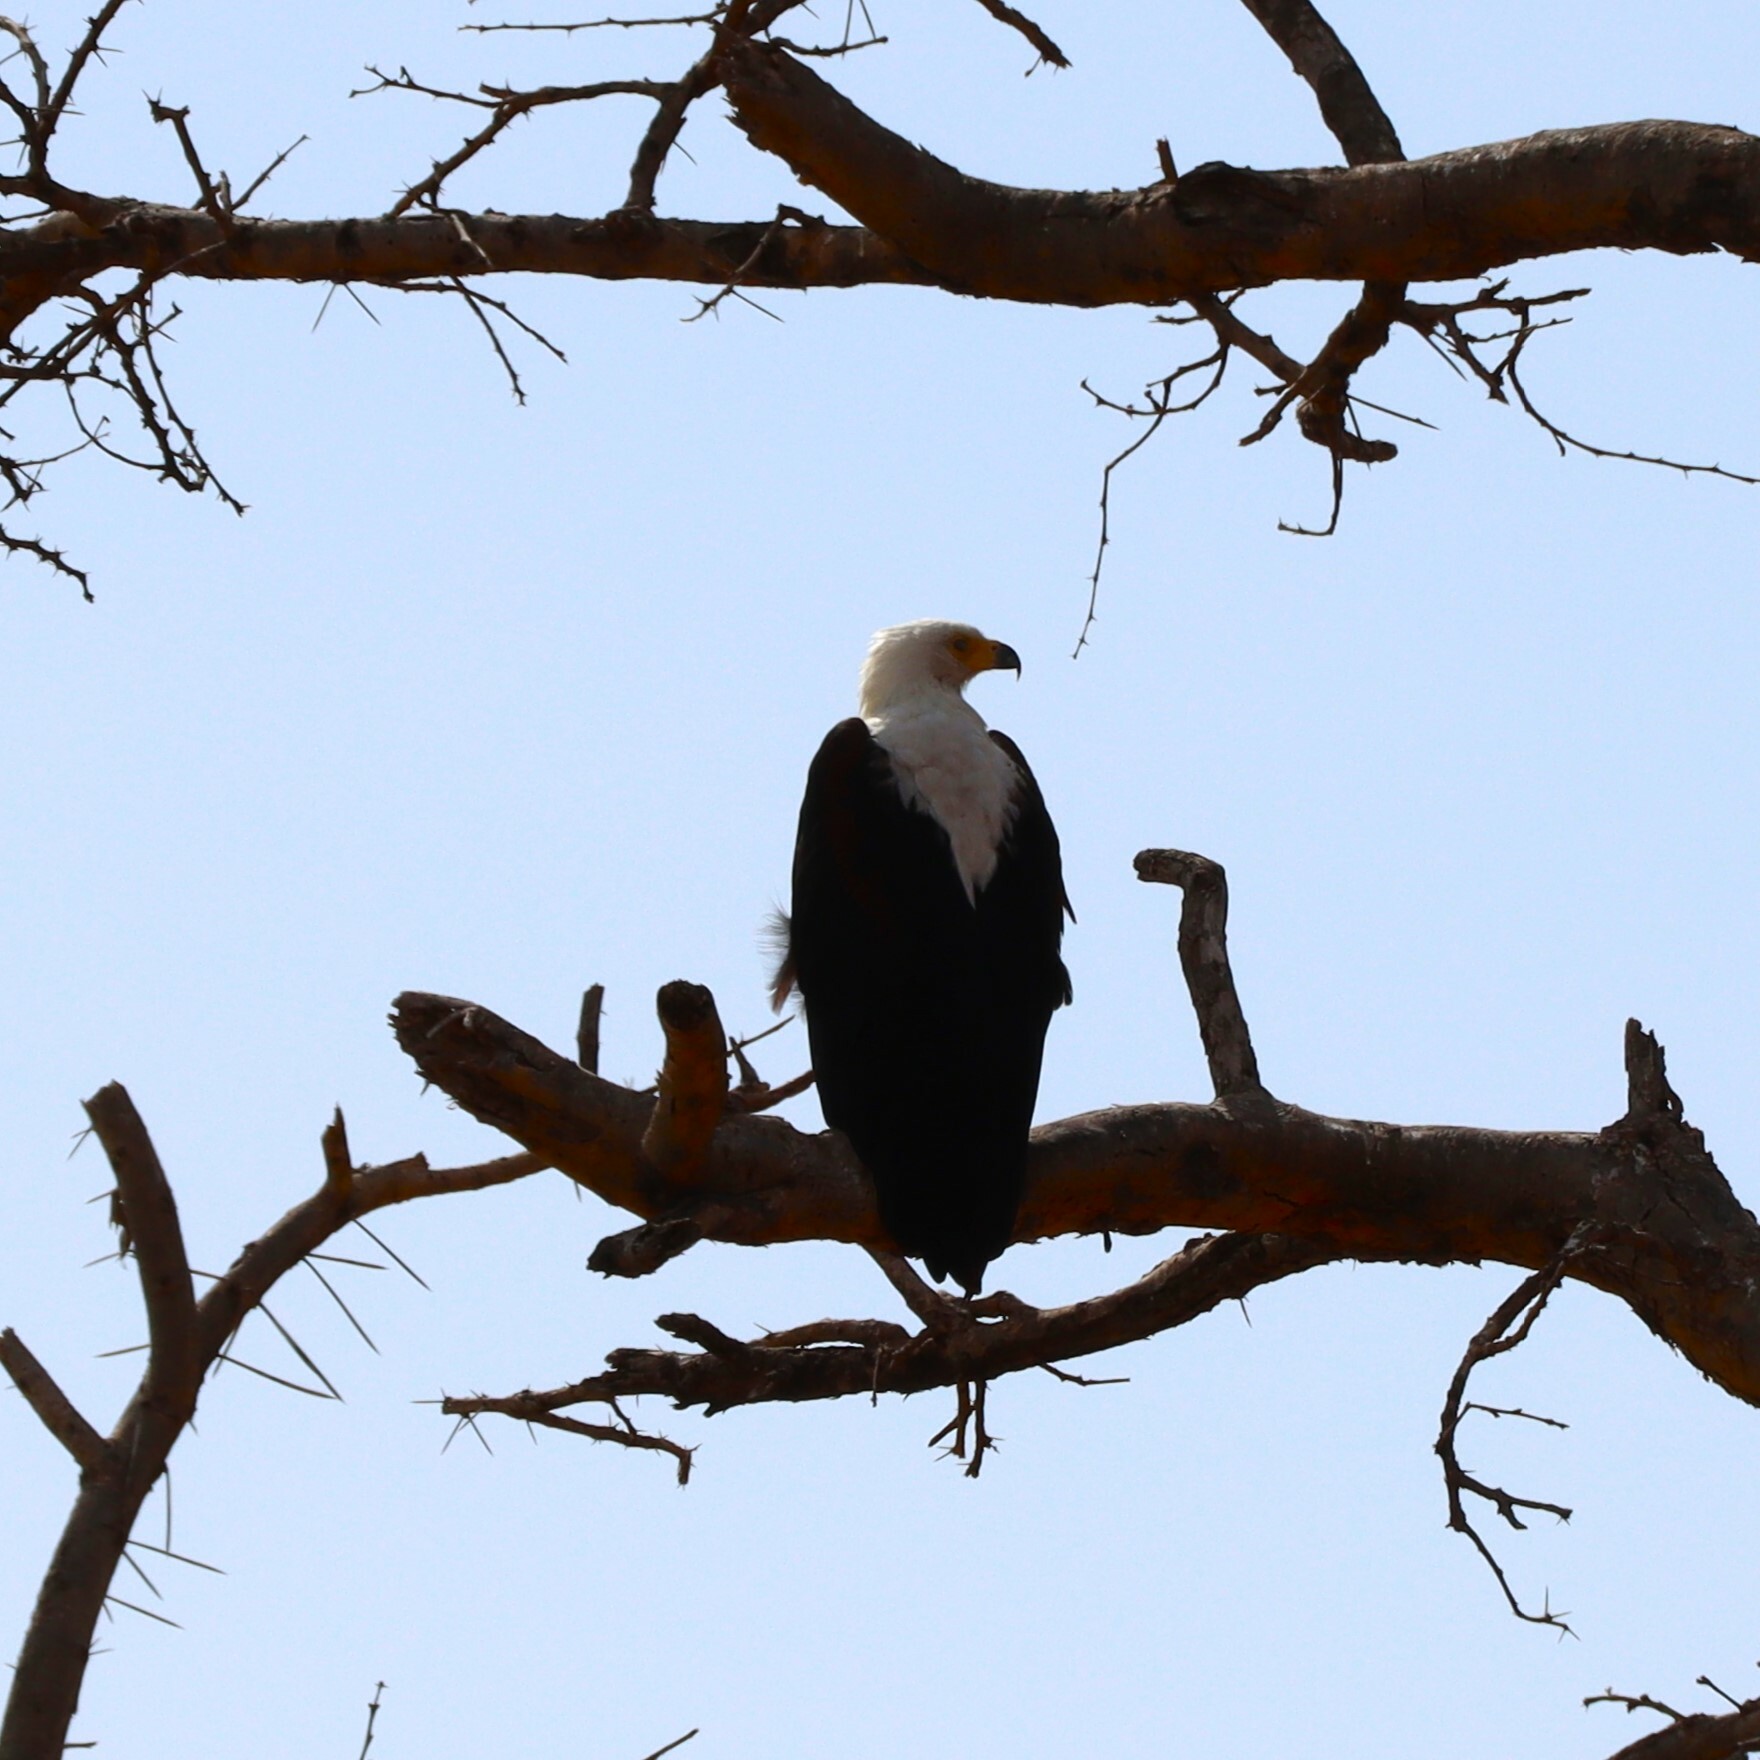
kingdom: Animalia
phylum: Chordata
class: Aves
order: Accipitriformes
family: Accipitridae
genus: Haliaeetus
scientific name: Haliaeetus vocifer
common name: African fish eagle
